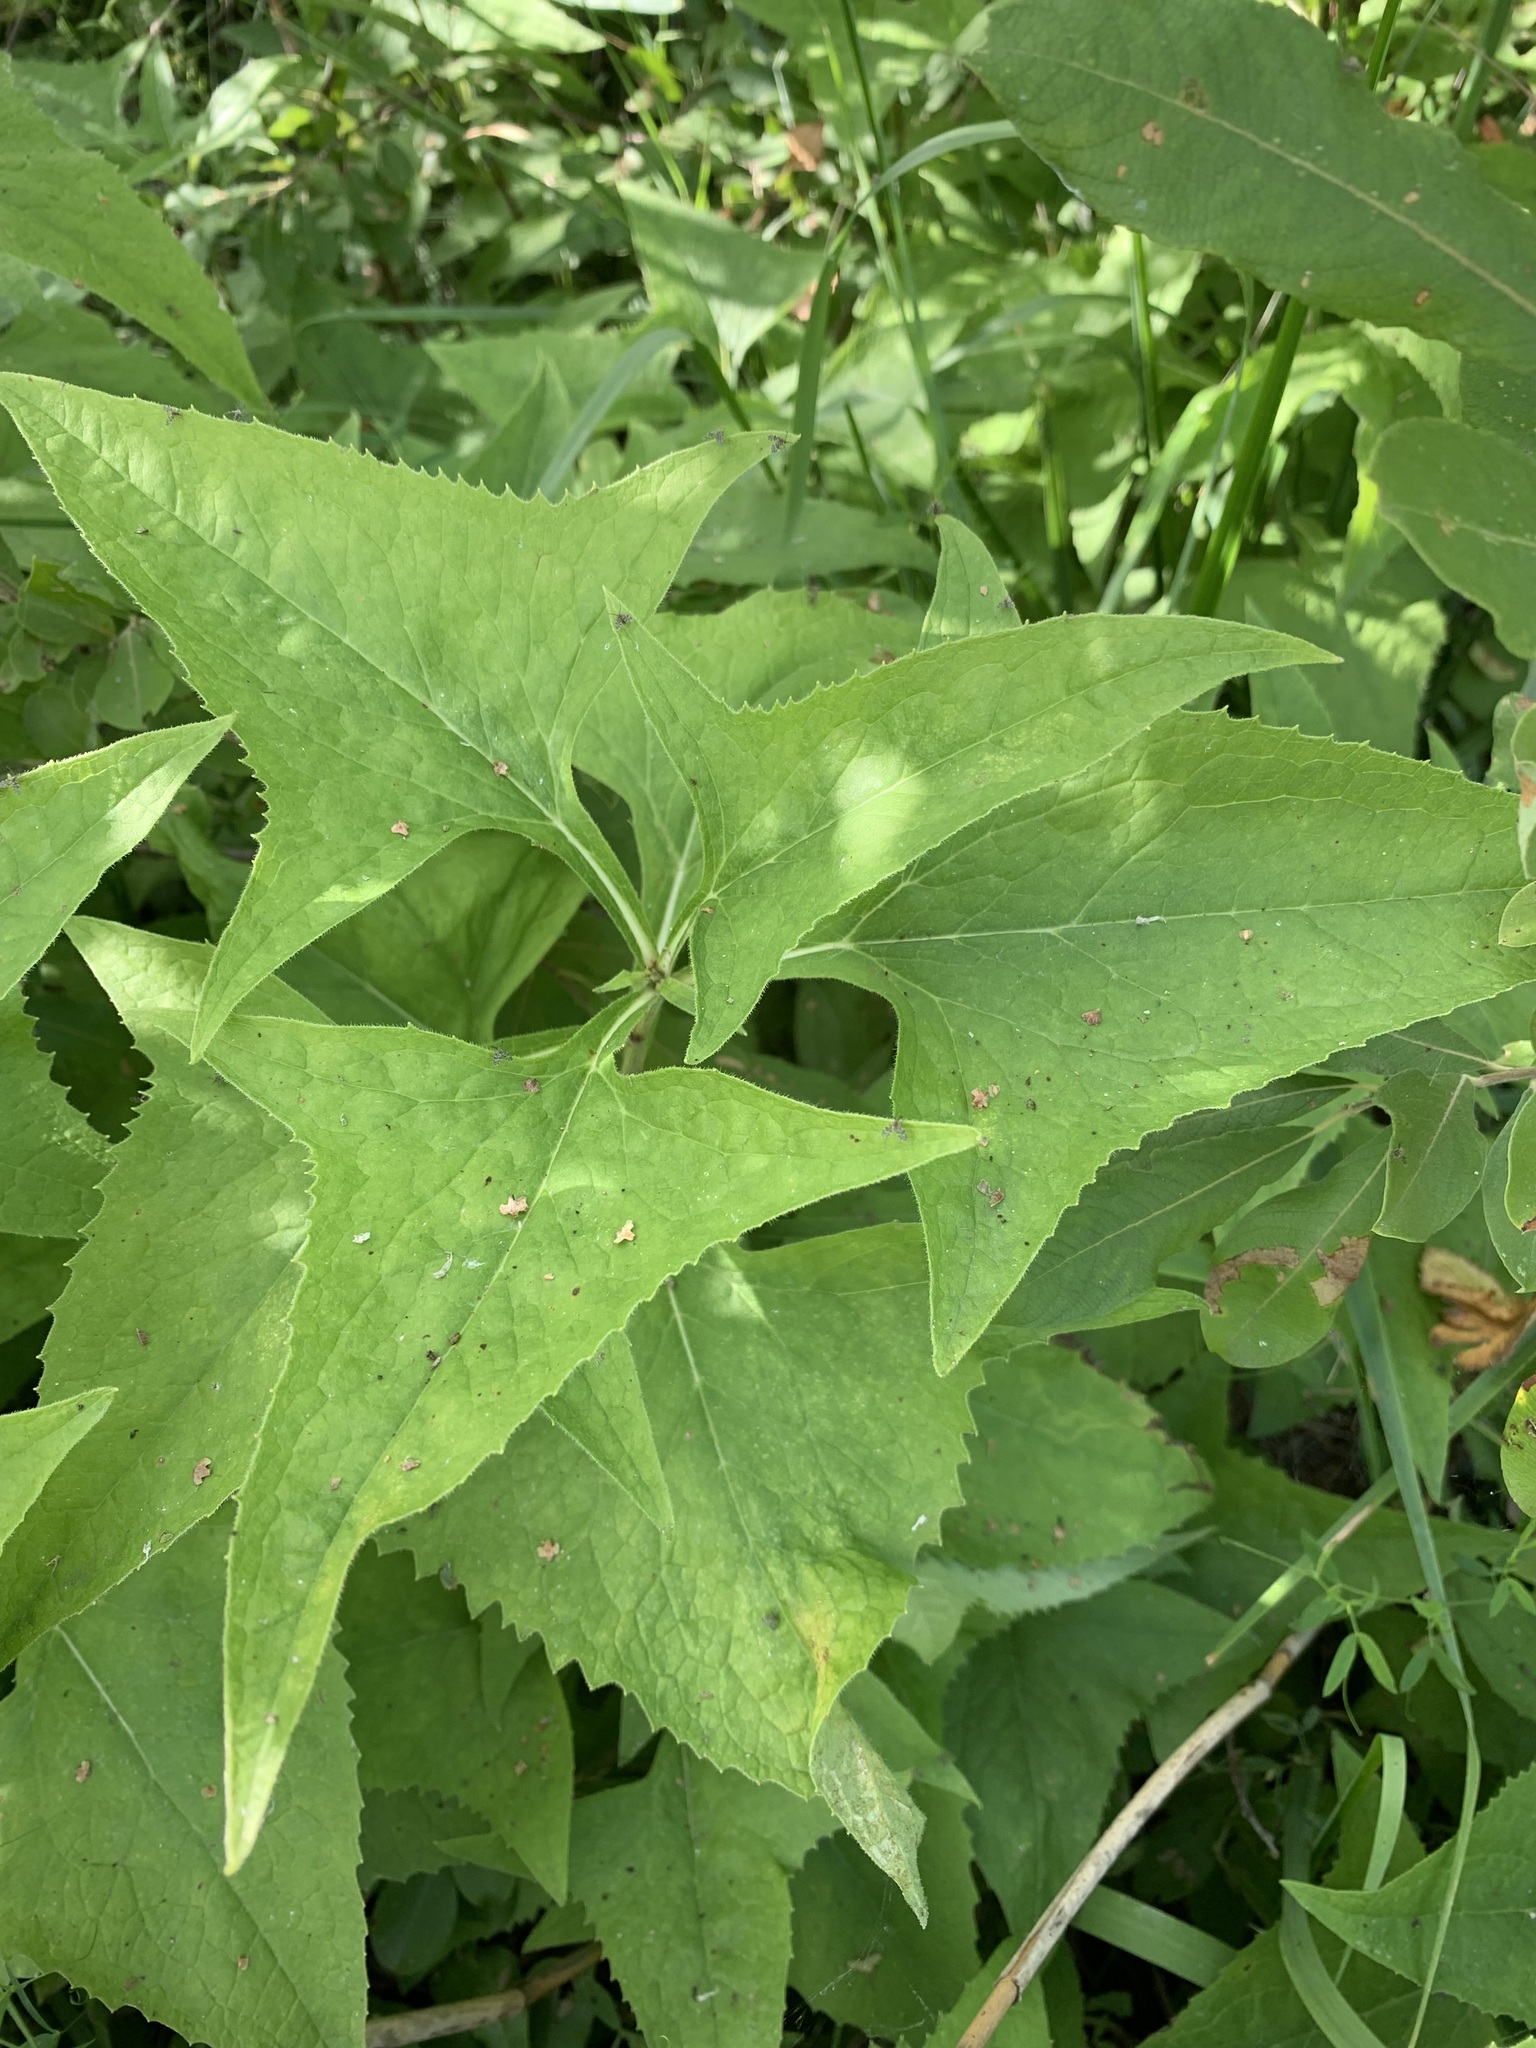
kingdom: Plantae
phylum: Tracheophyta
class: Magnoliopsida
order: Asterales
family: Asteraceae
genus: Parasenecio
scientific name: Parasenecio hastatus
